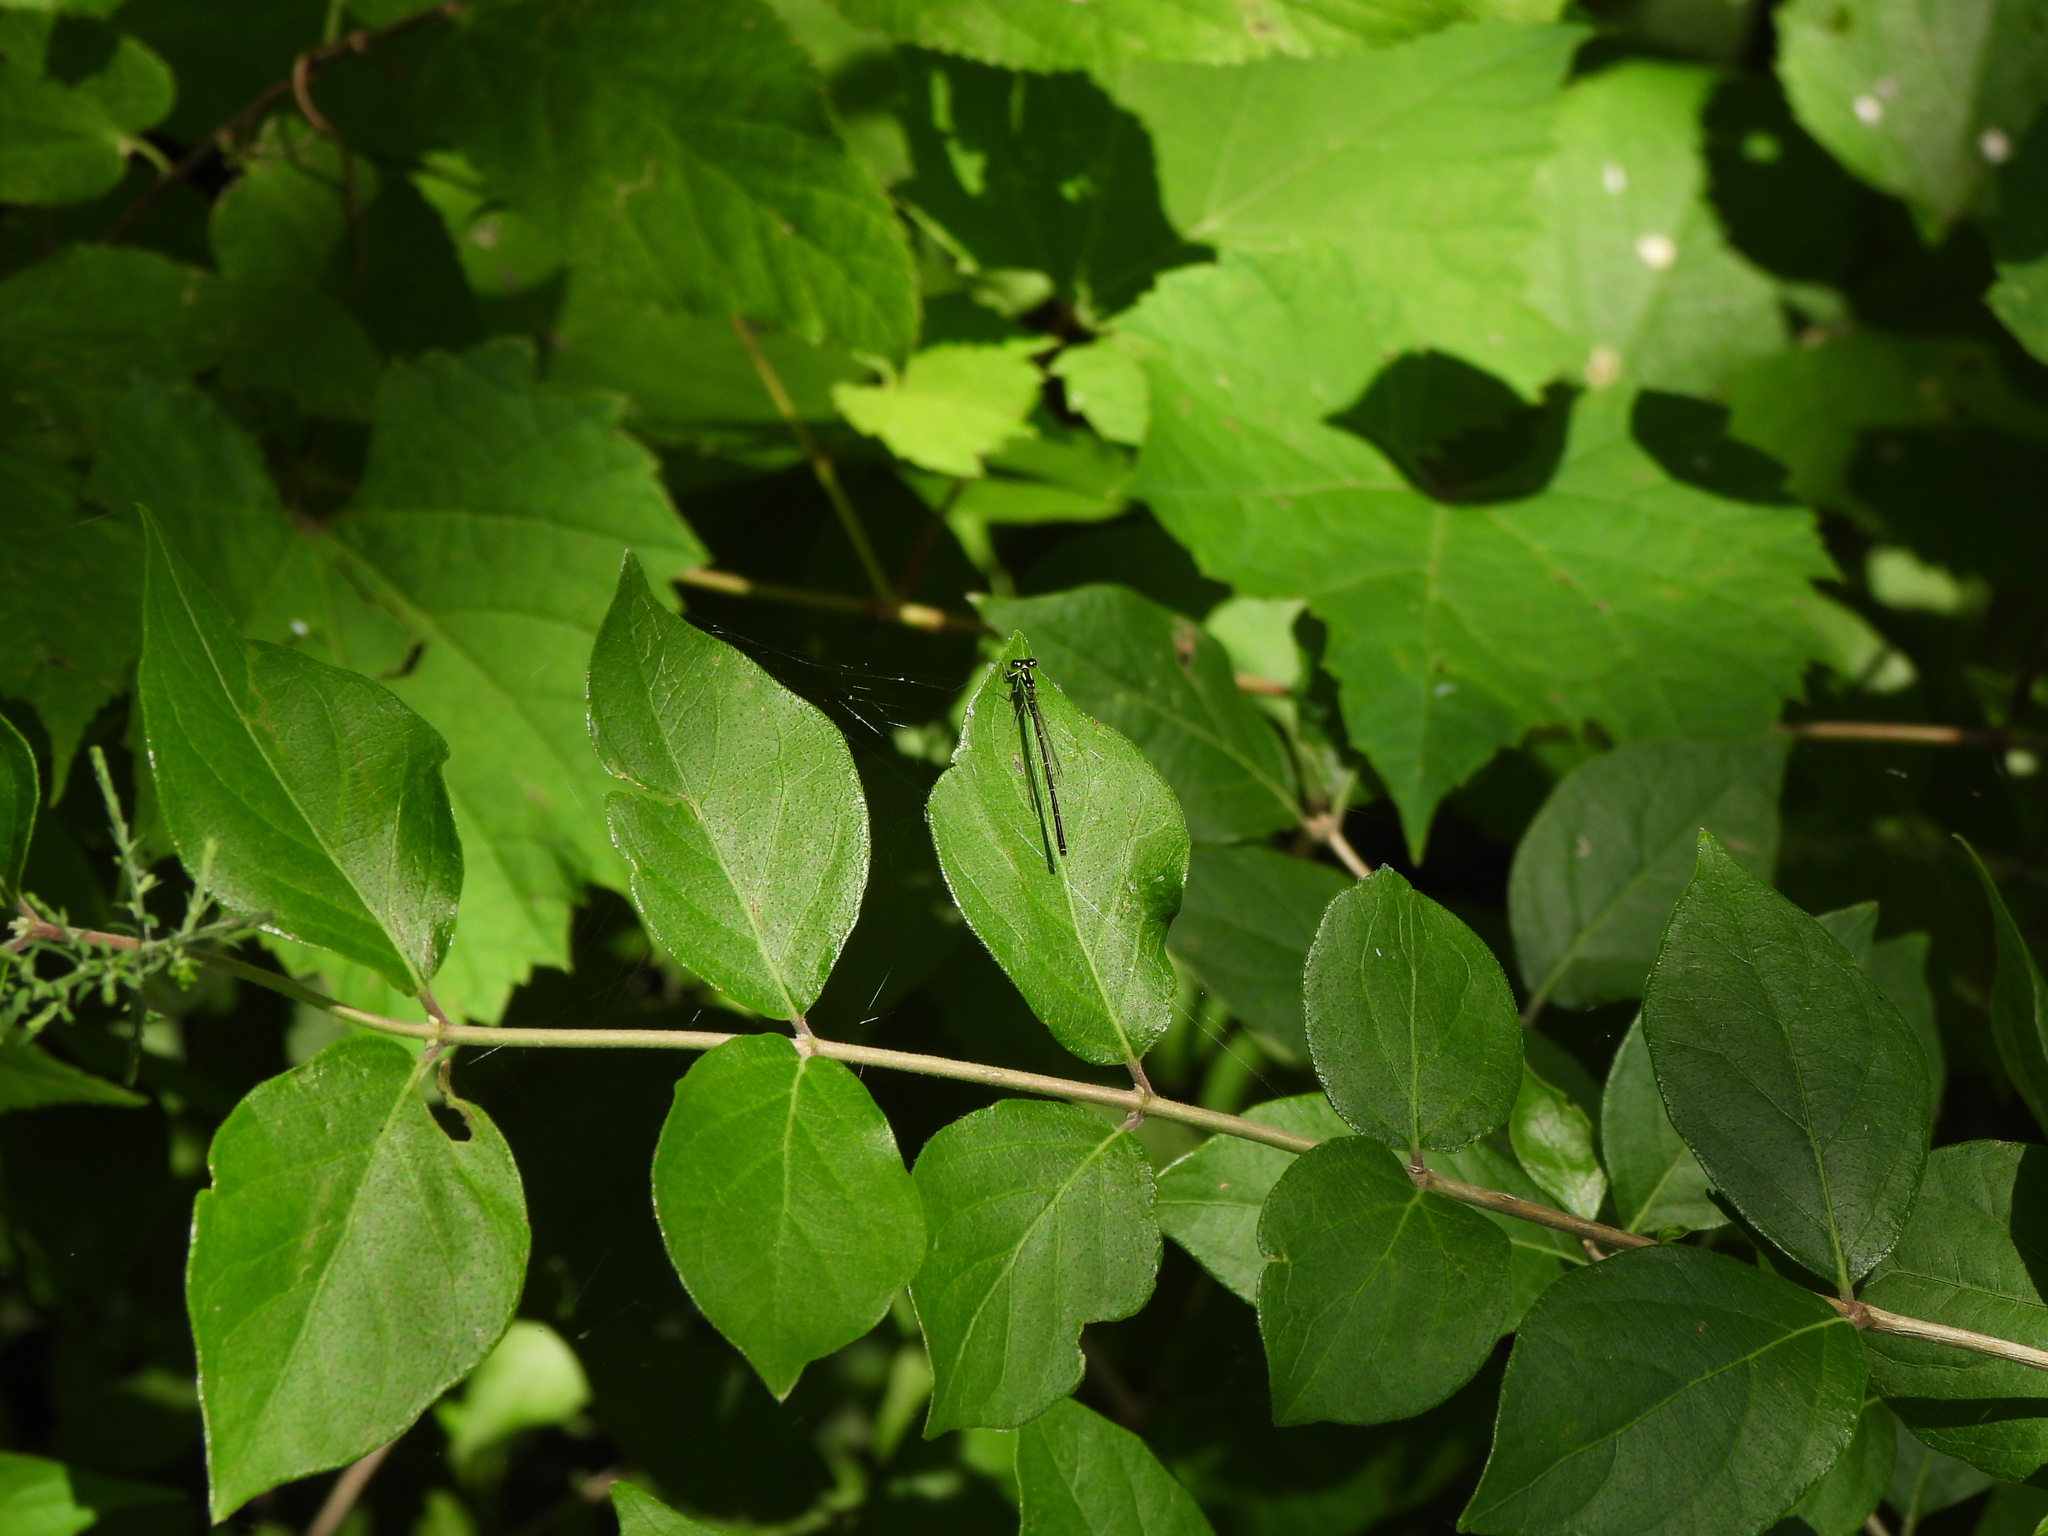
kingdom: Animalia
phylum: Arthropoda
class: Insecta
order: Odonata
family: Coenagrionidae
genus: Ischnura
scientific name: Ischnura posita
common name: Fragile forktail
